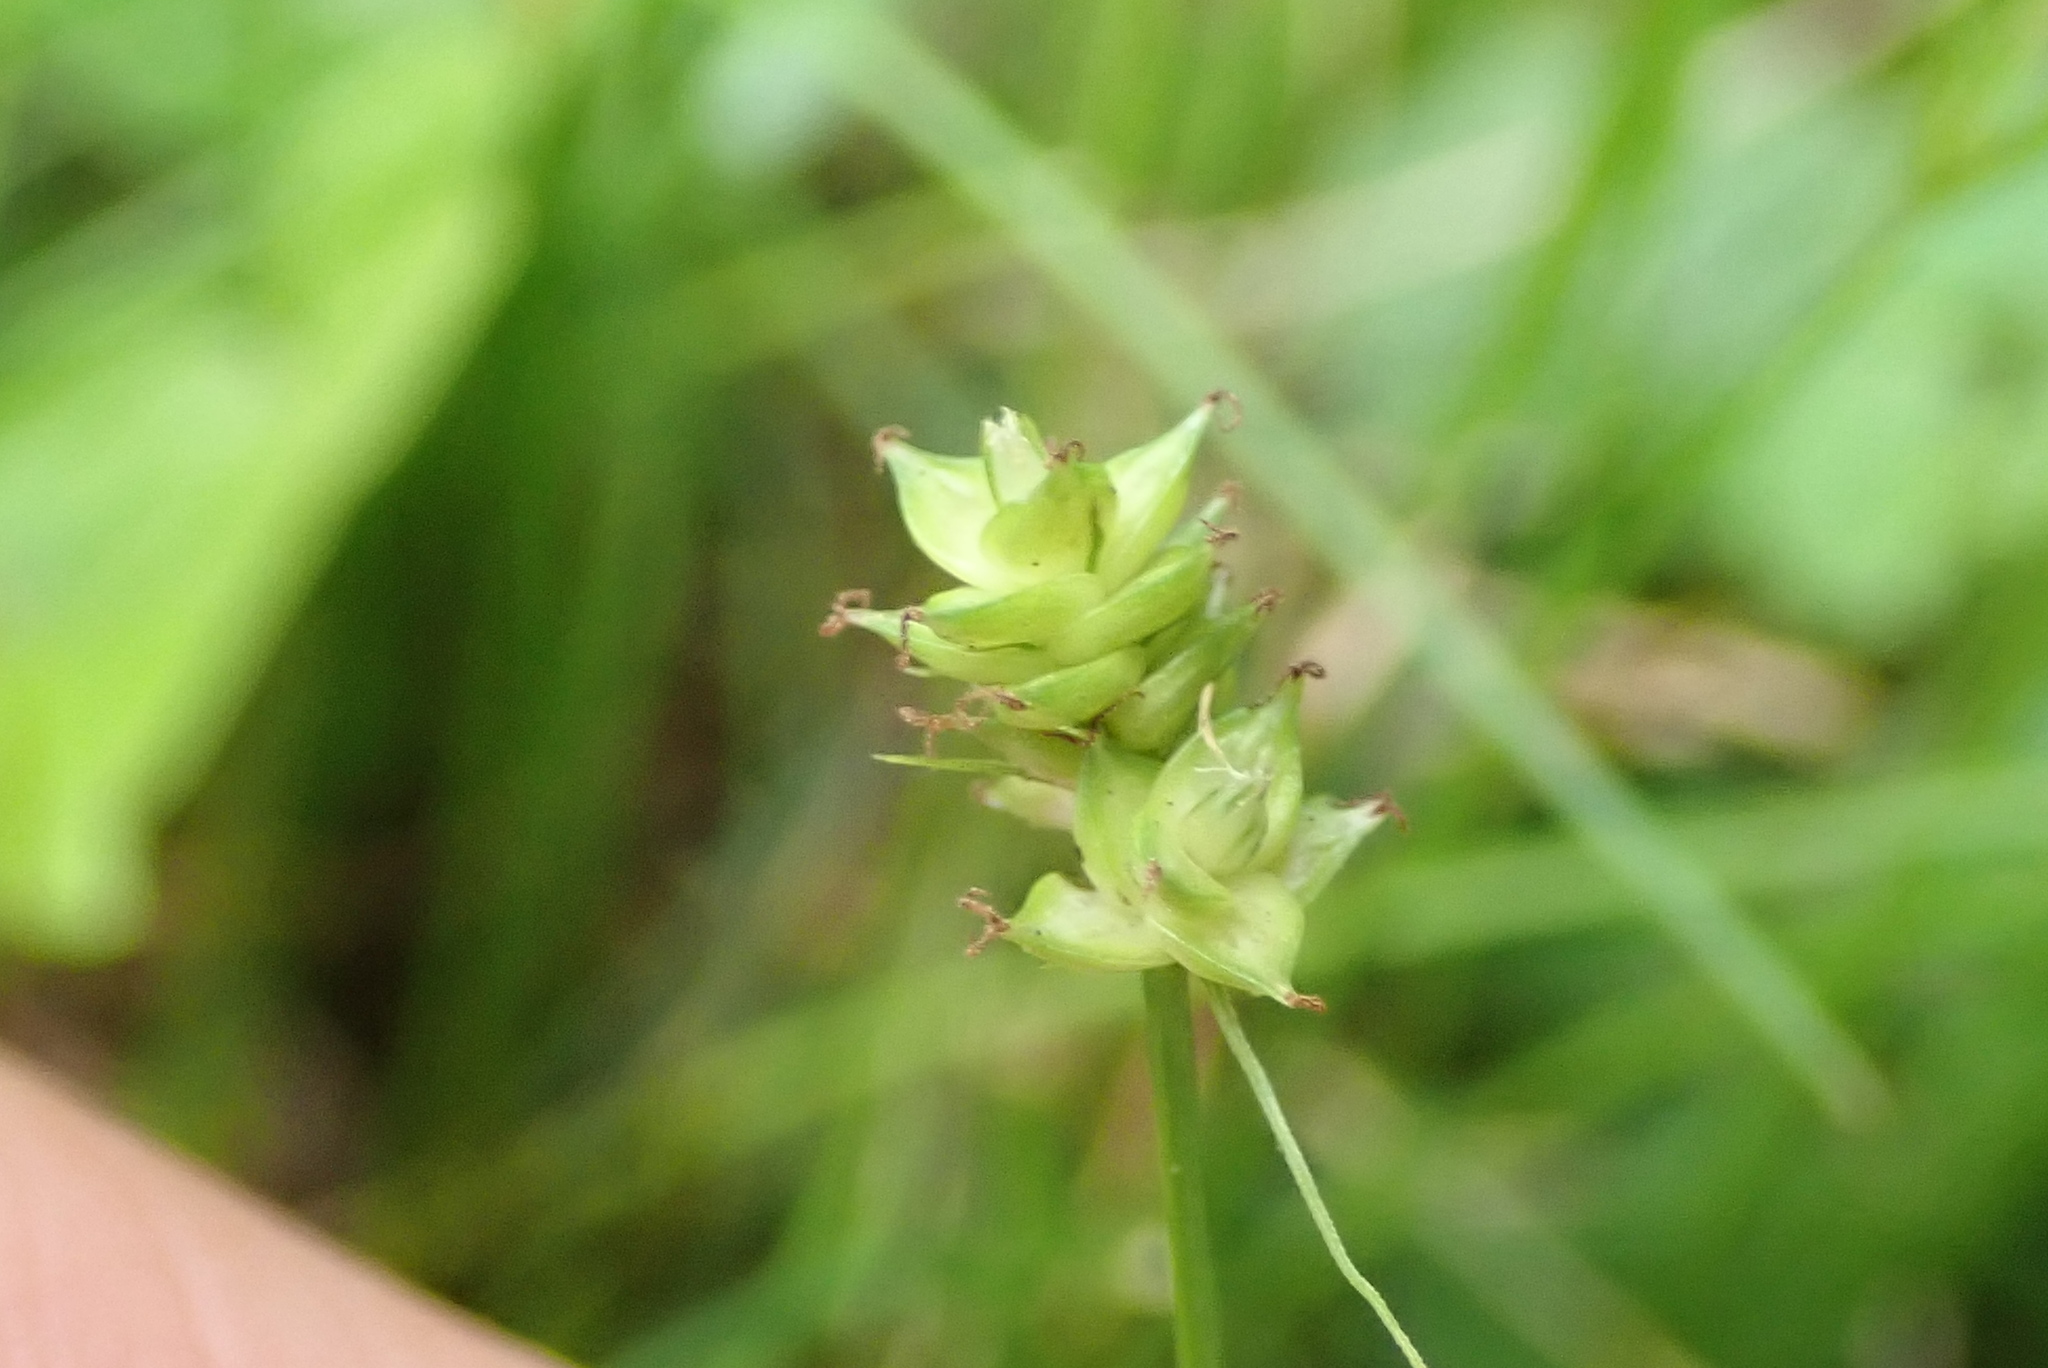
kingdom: Plantae
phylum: Tracheophyta
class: Liliopsida
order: Poales
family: Cyperaceae
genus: Carex
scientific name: Carex rosea
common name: Curly-styled wood sedge
